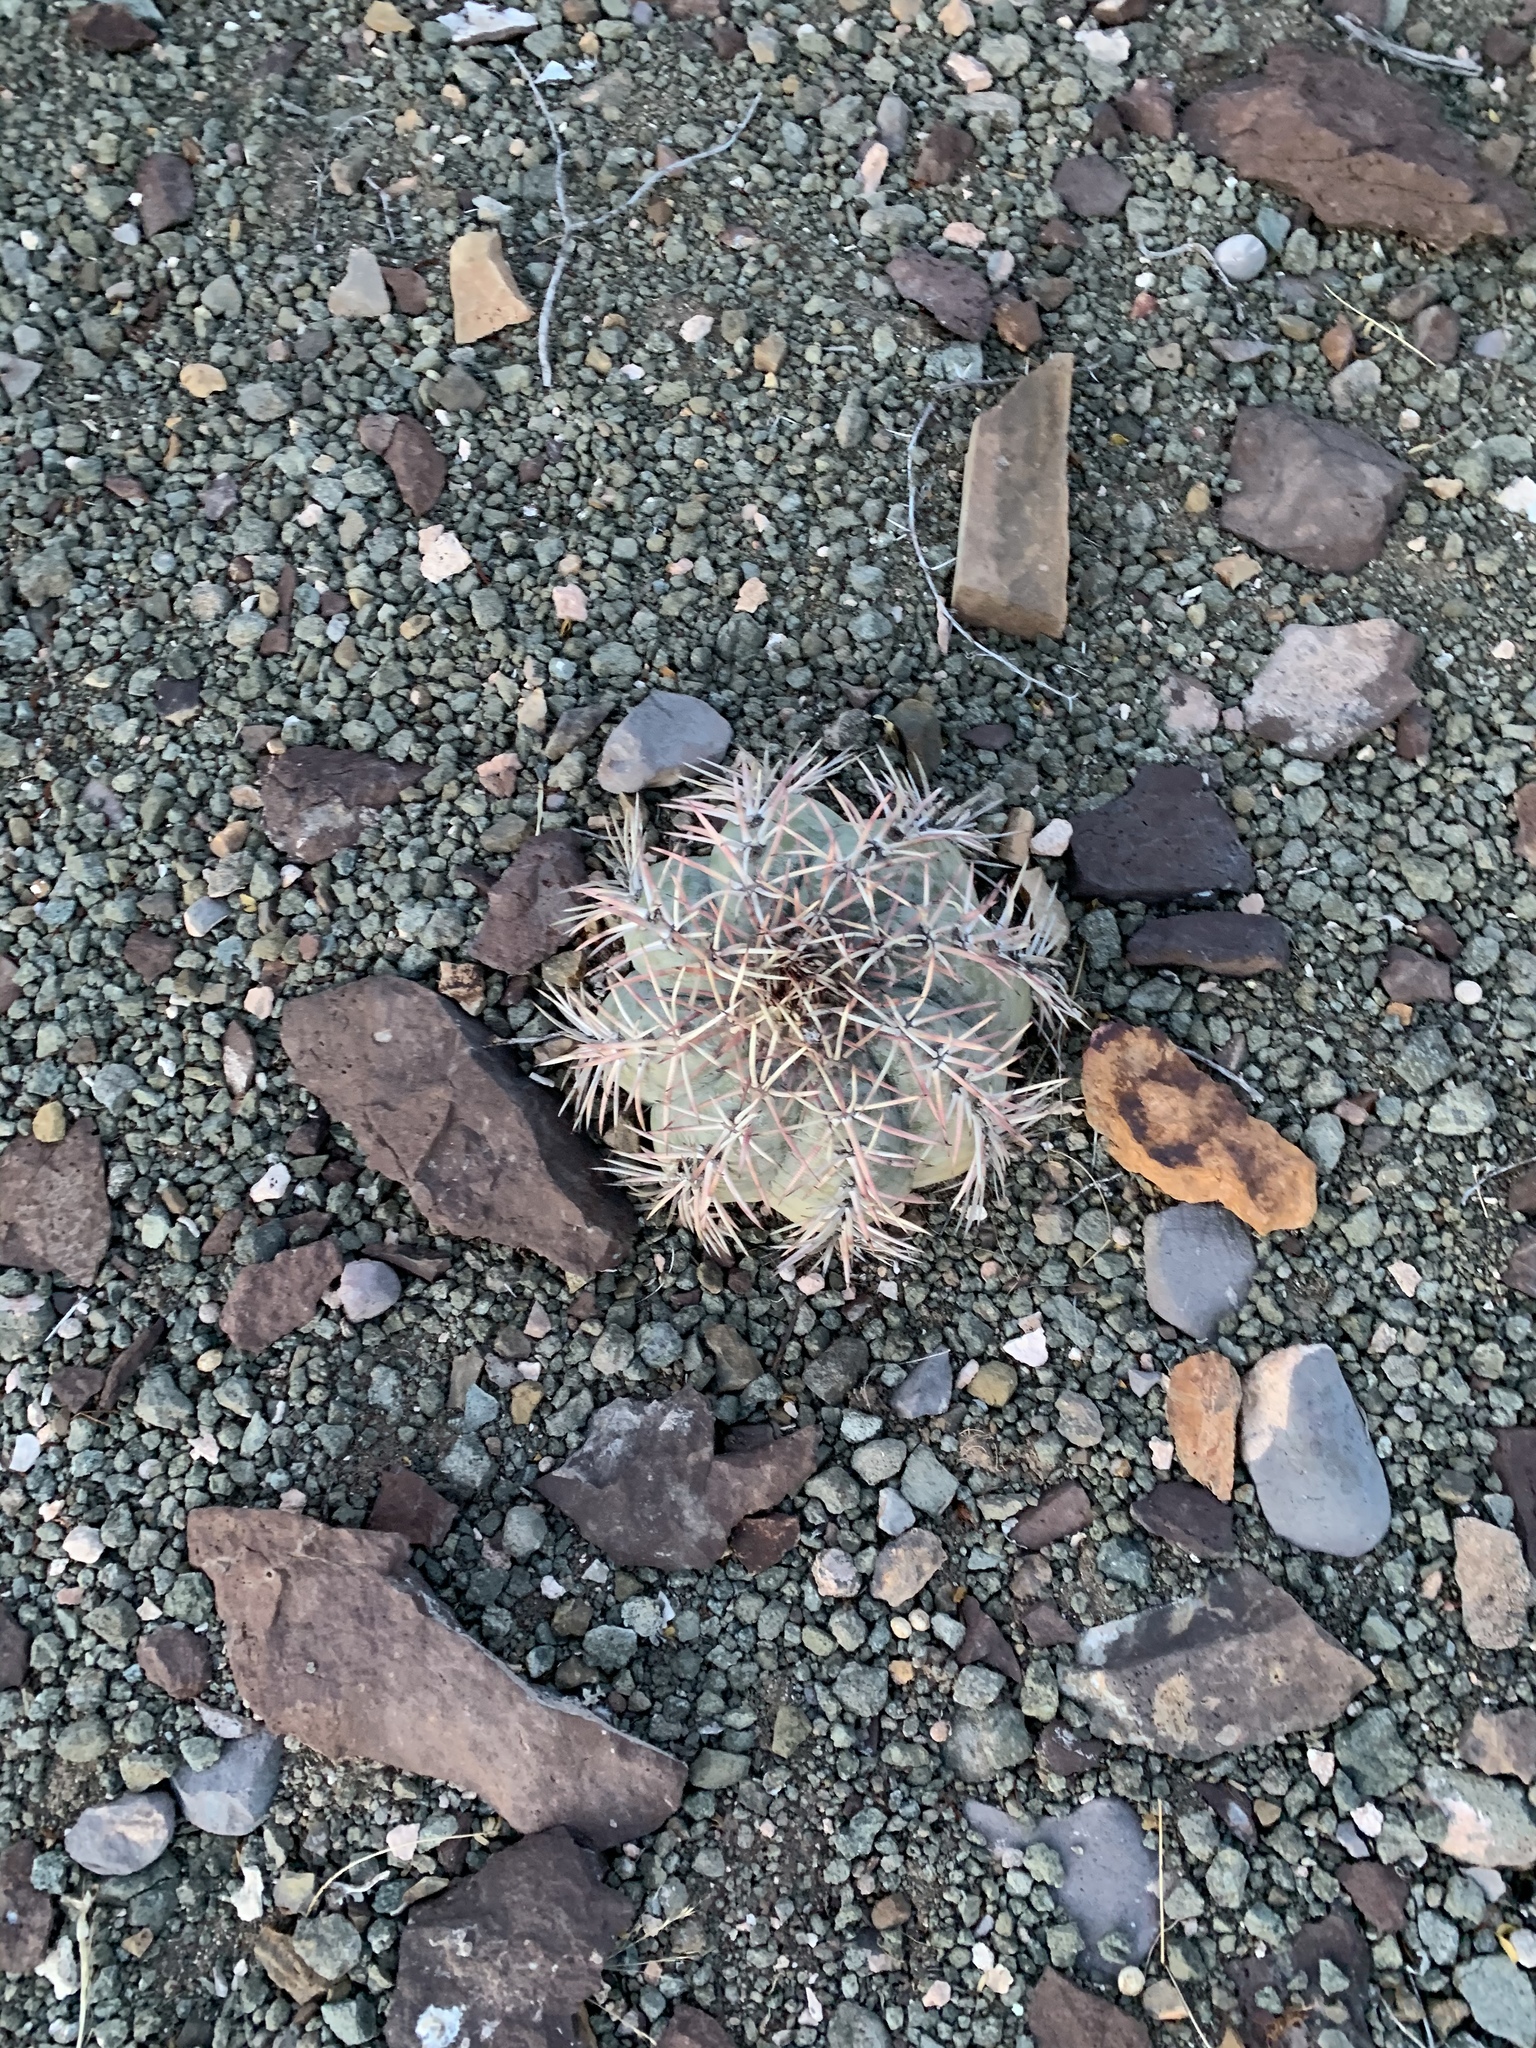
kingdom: Plantae
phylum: Tracheophyta
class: Magnoliopsida
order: Caryophyllales
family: Cactaceae
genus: Echinocactus
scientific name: Echinocactus horizonthalonius
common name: Devilshead
